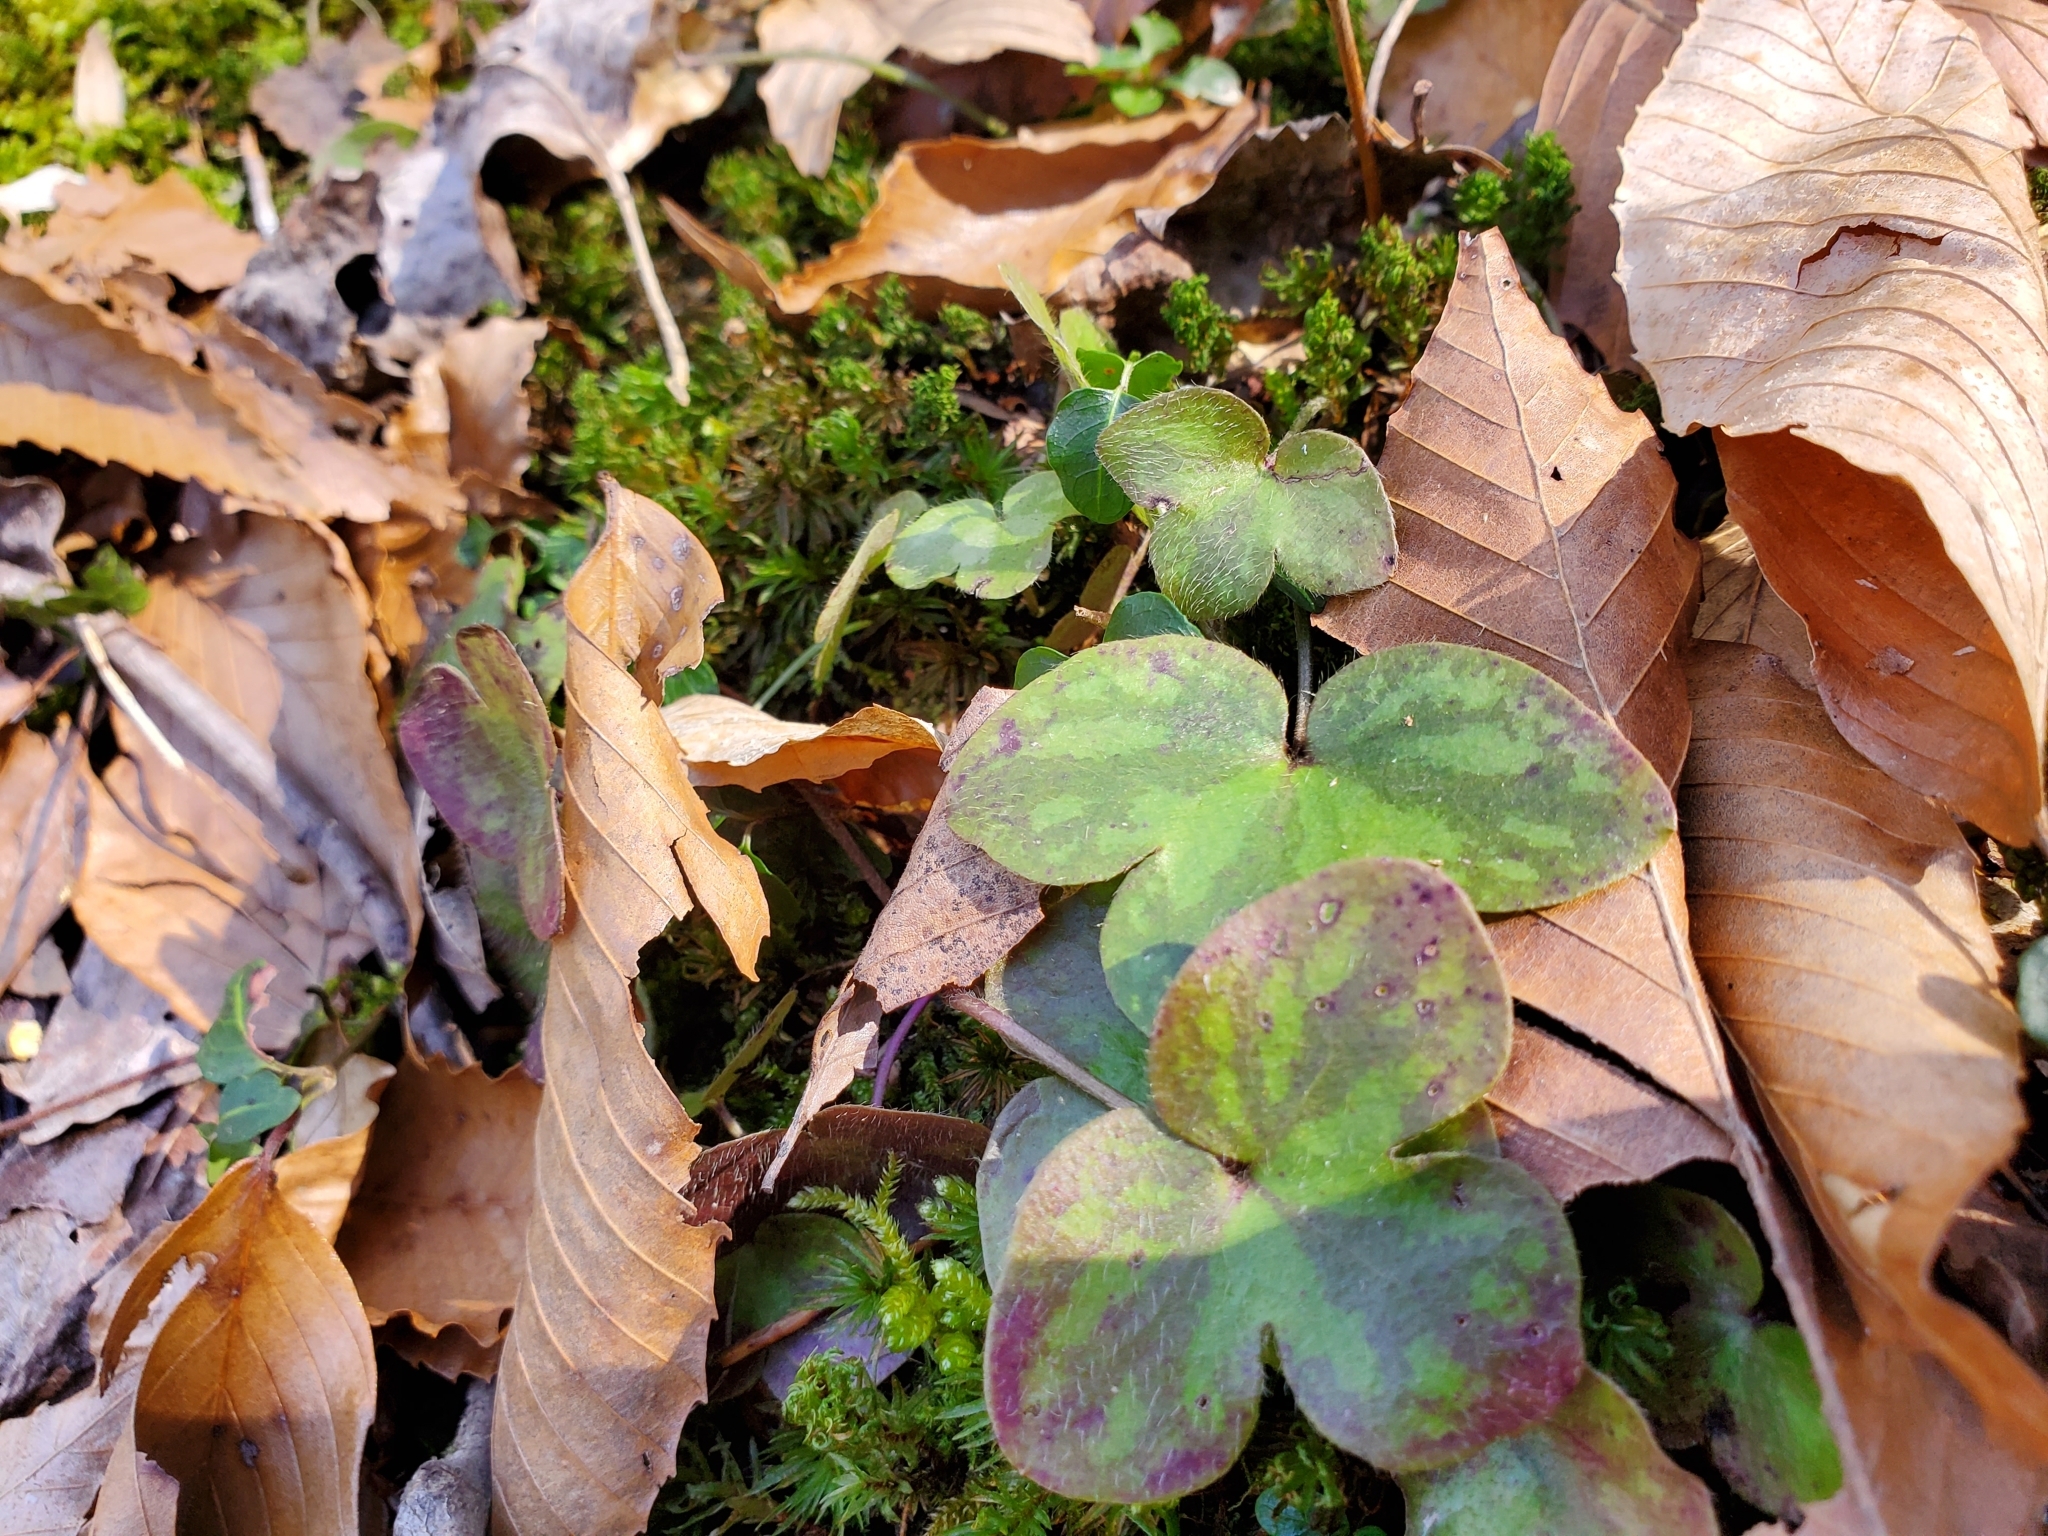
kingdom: Plantae
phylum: Tracheophyta
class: Magnoliopsida
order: Ranunculales
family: Ranunculaceae
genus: Hepatica
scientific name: Hepatica americana
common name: American hepatica
